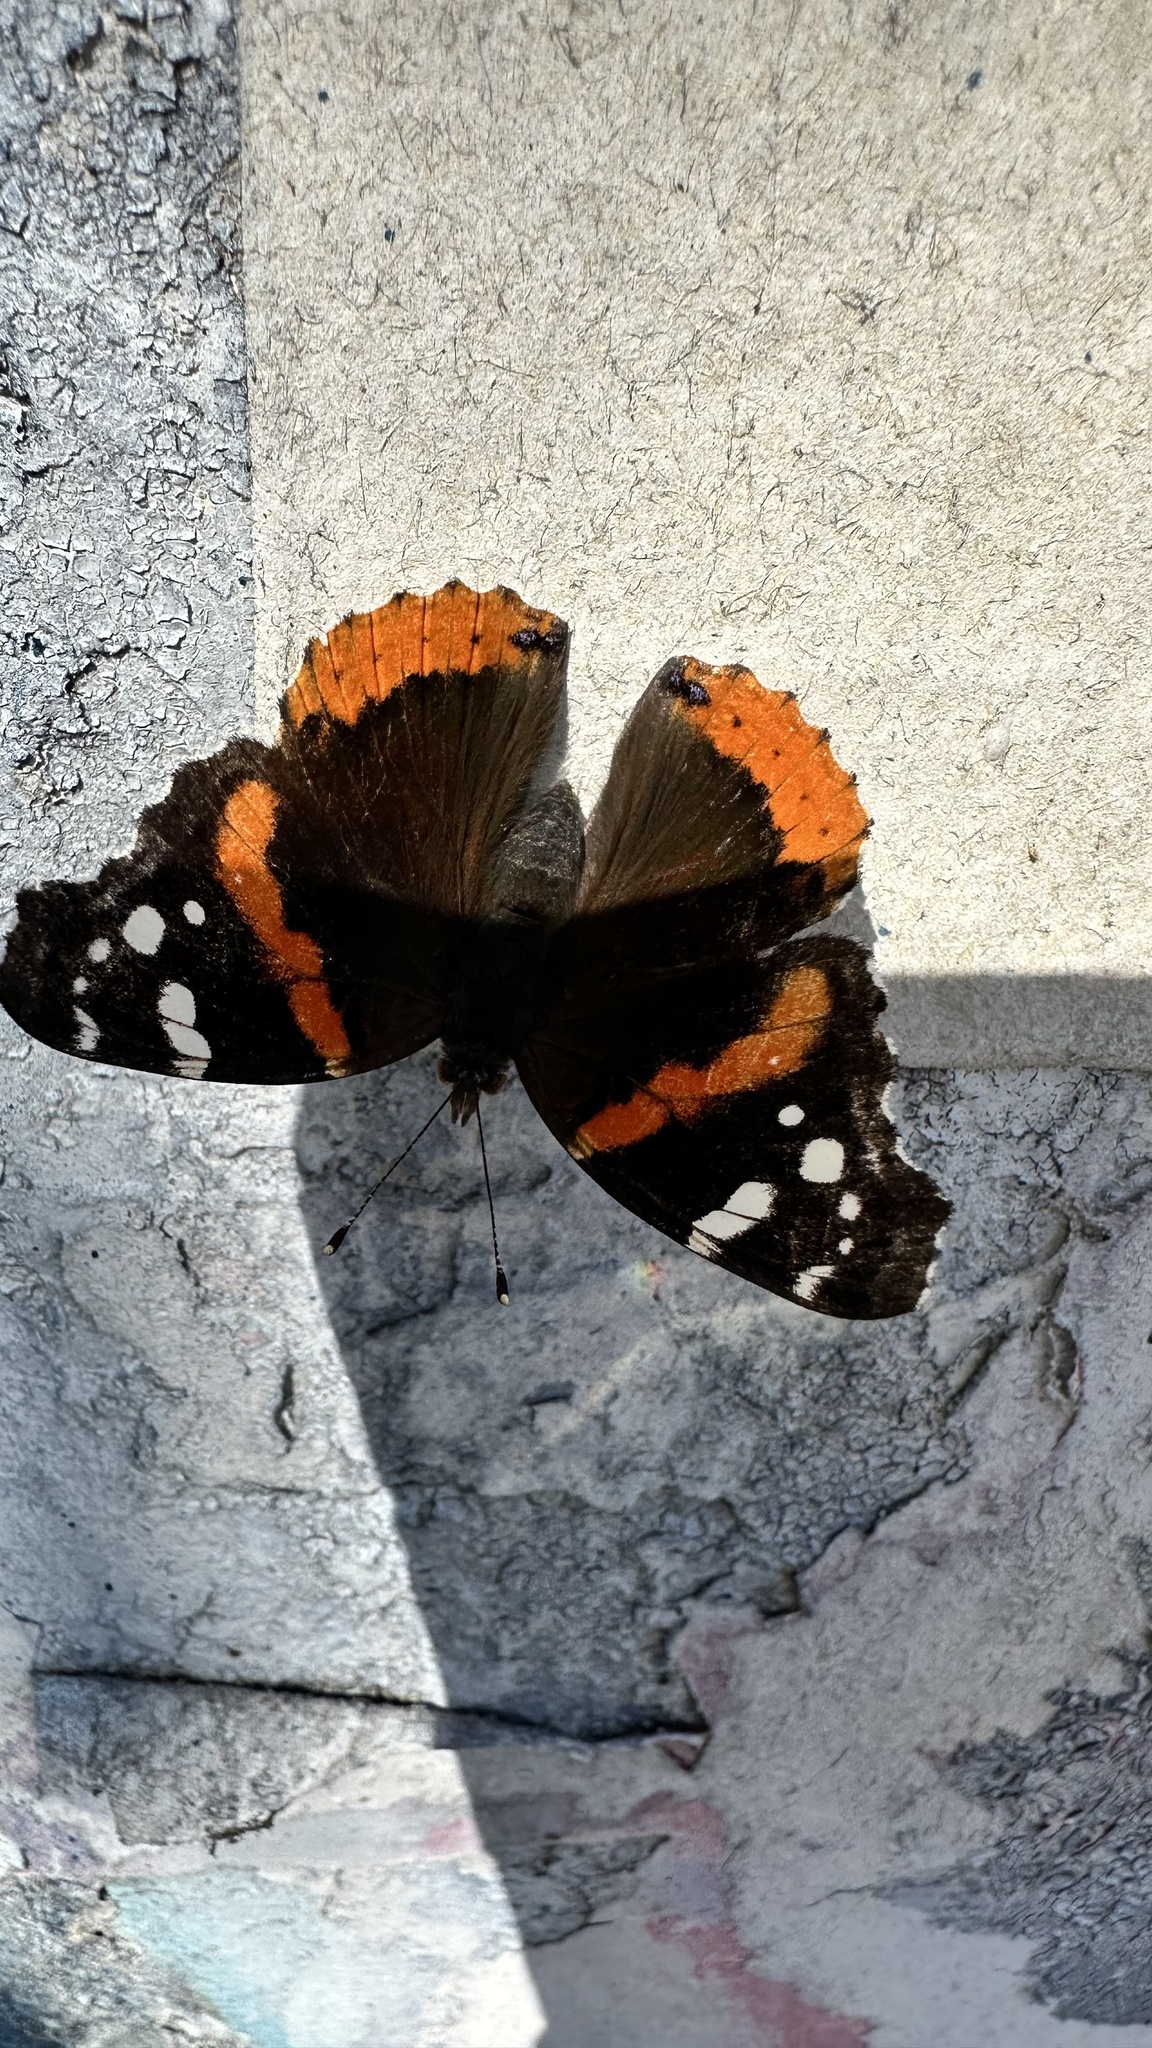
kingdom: Animalia
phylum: Arthropoda
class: Insecta
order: Lepidoptera
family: Nymphalidae
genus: Vanessa
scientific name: Vanessa atalanta
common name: Red admiral
